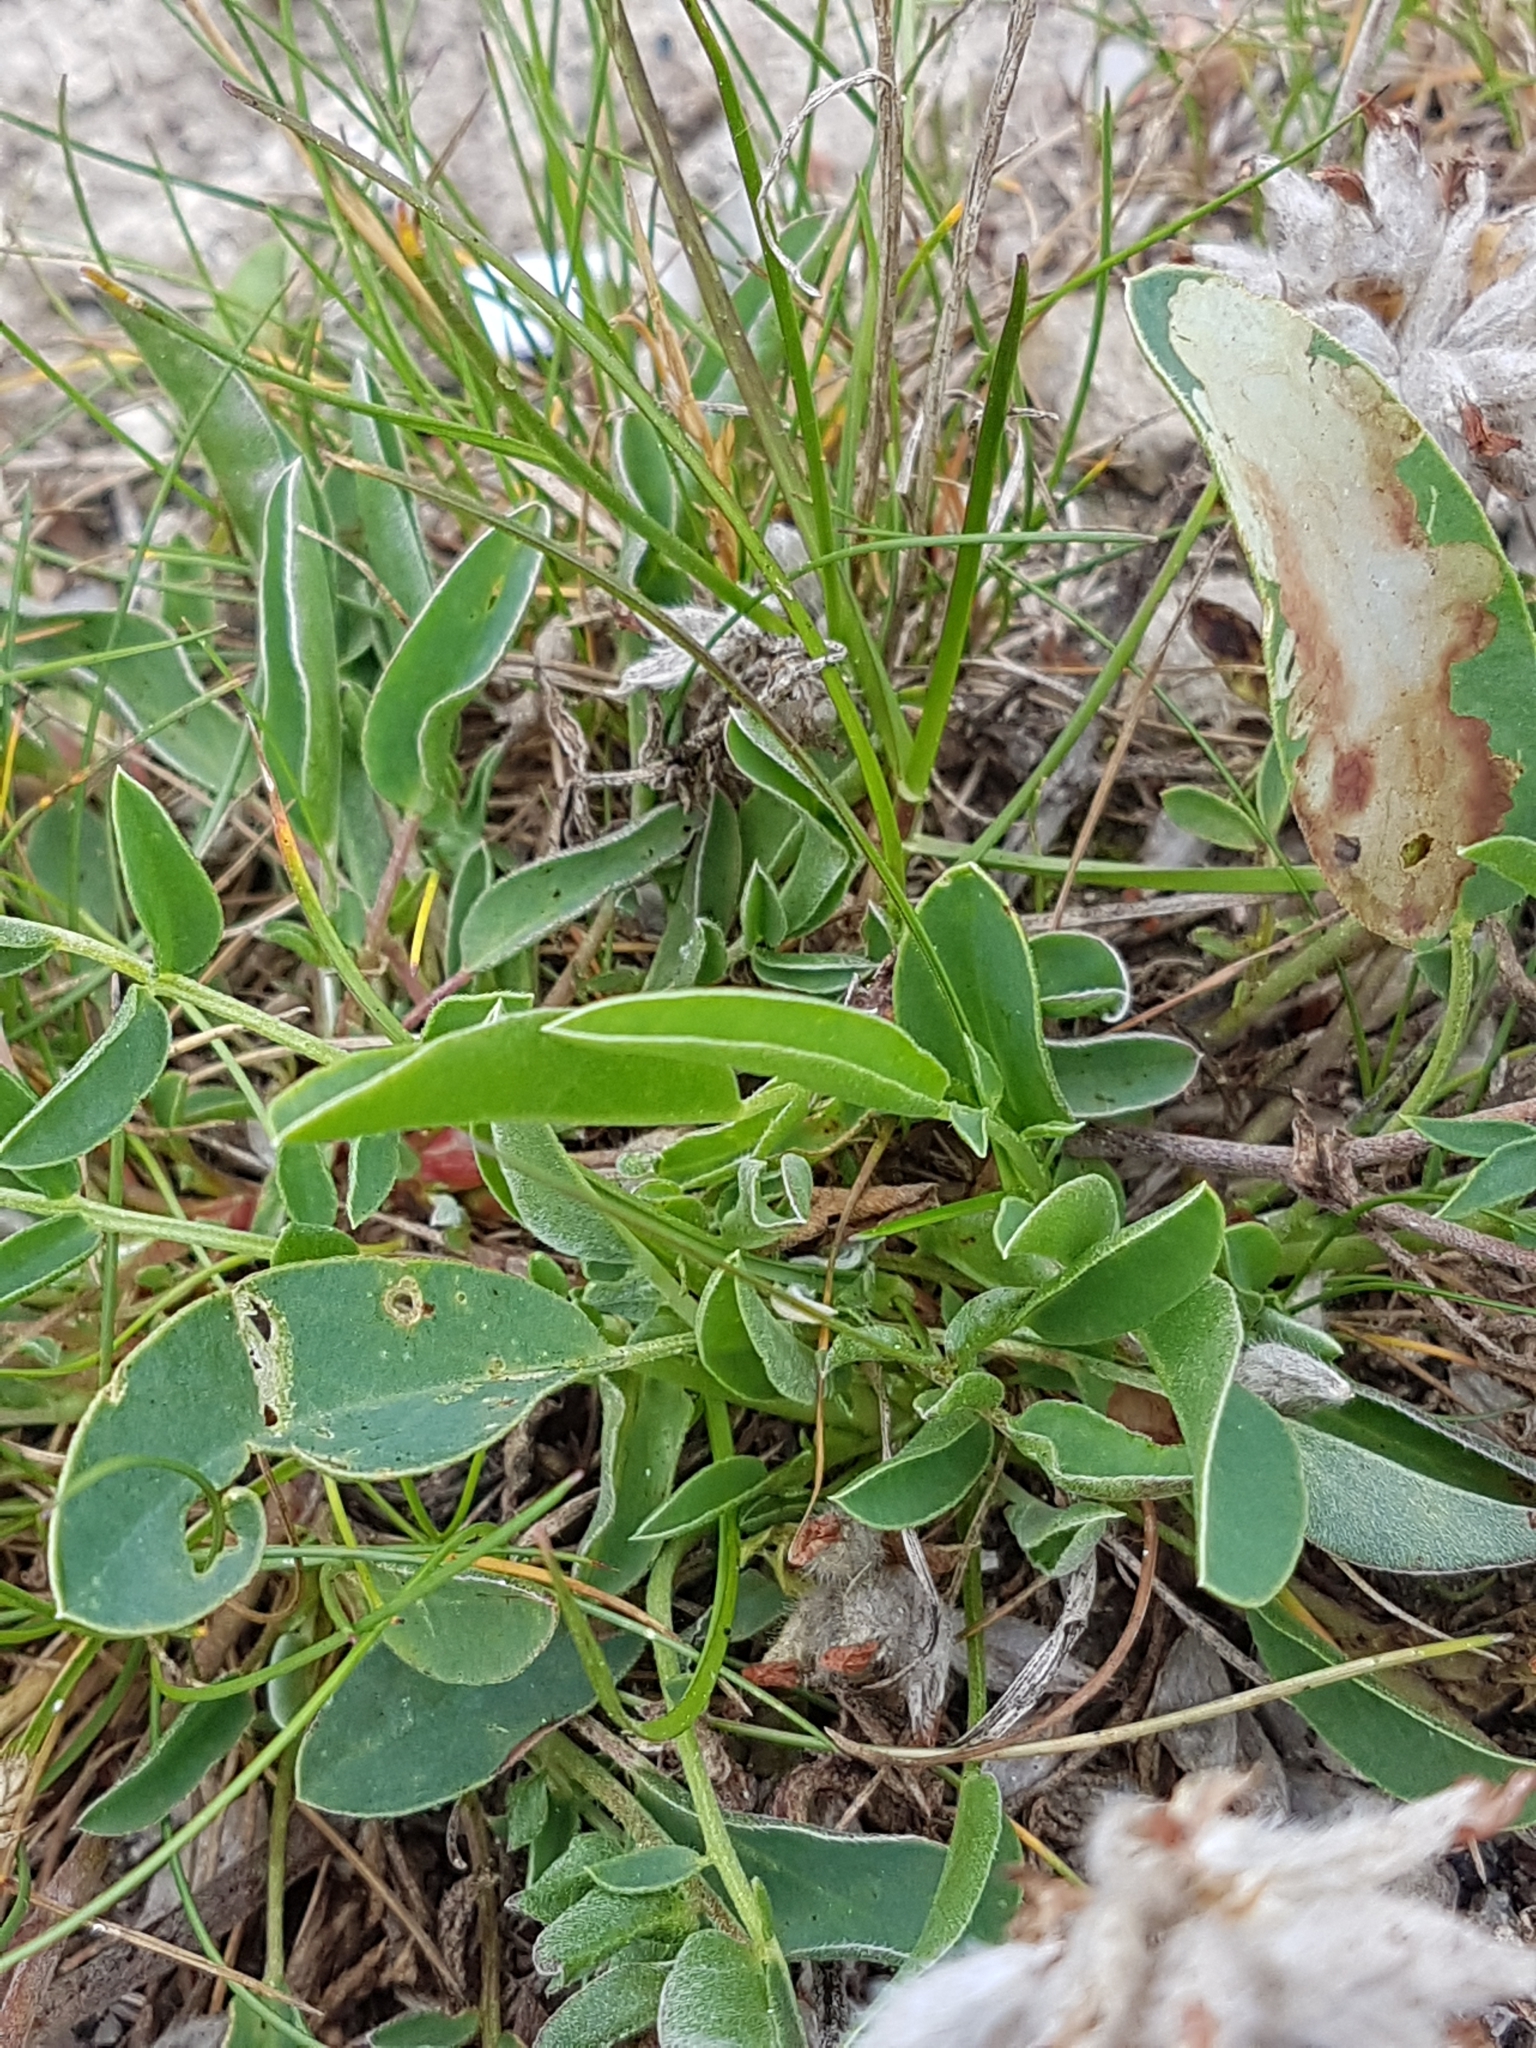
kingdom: Plantae
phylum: Tracheophyta
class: Magnoliopsida
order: Fabales
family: Fabaceae
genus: Anthyllis
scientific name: Anthyllis vulneraria
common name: Kidney vetch
